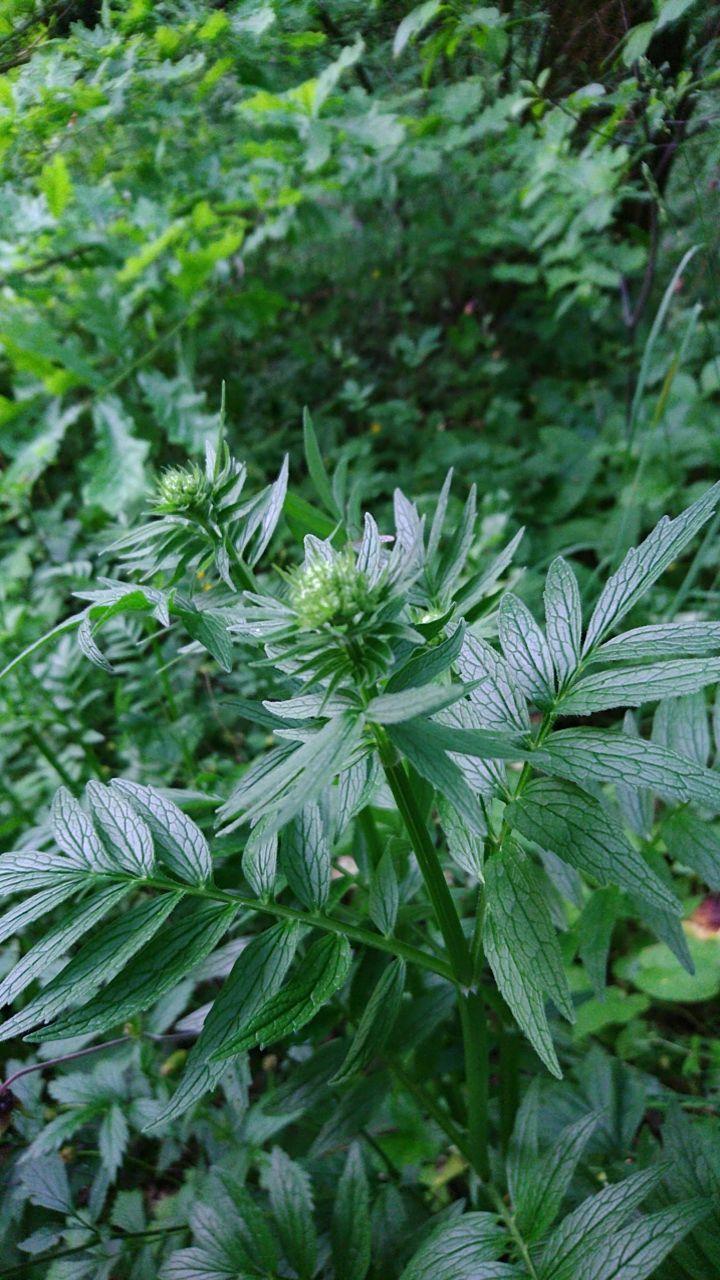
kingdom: Plantae
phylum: Tracheophyta
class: Magnoliopsida
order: Dipsacales
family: Caprifoliaceae
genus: Valeriana
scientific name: Valeriana officinalis
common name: Common valerian
